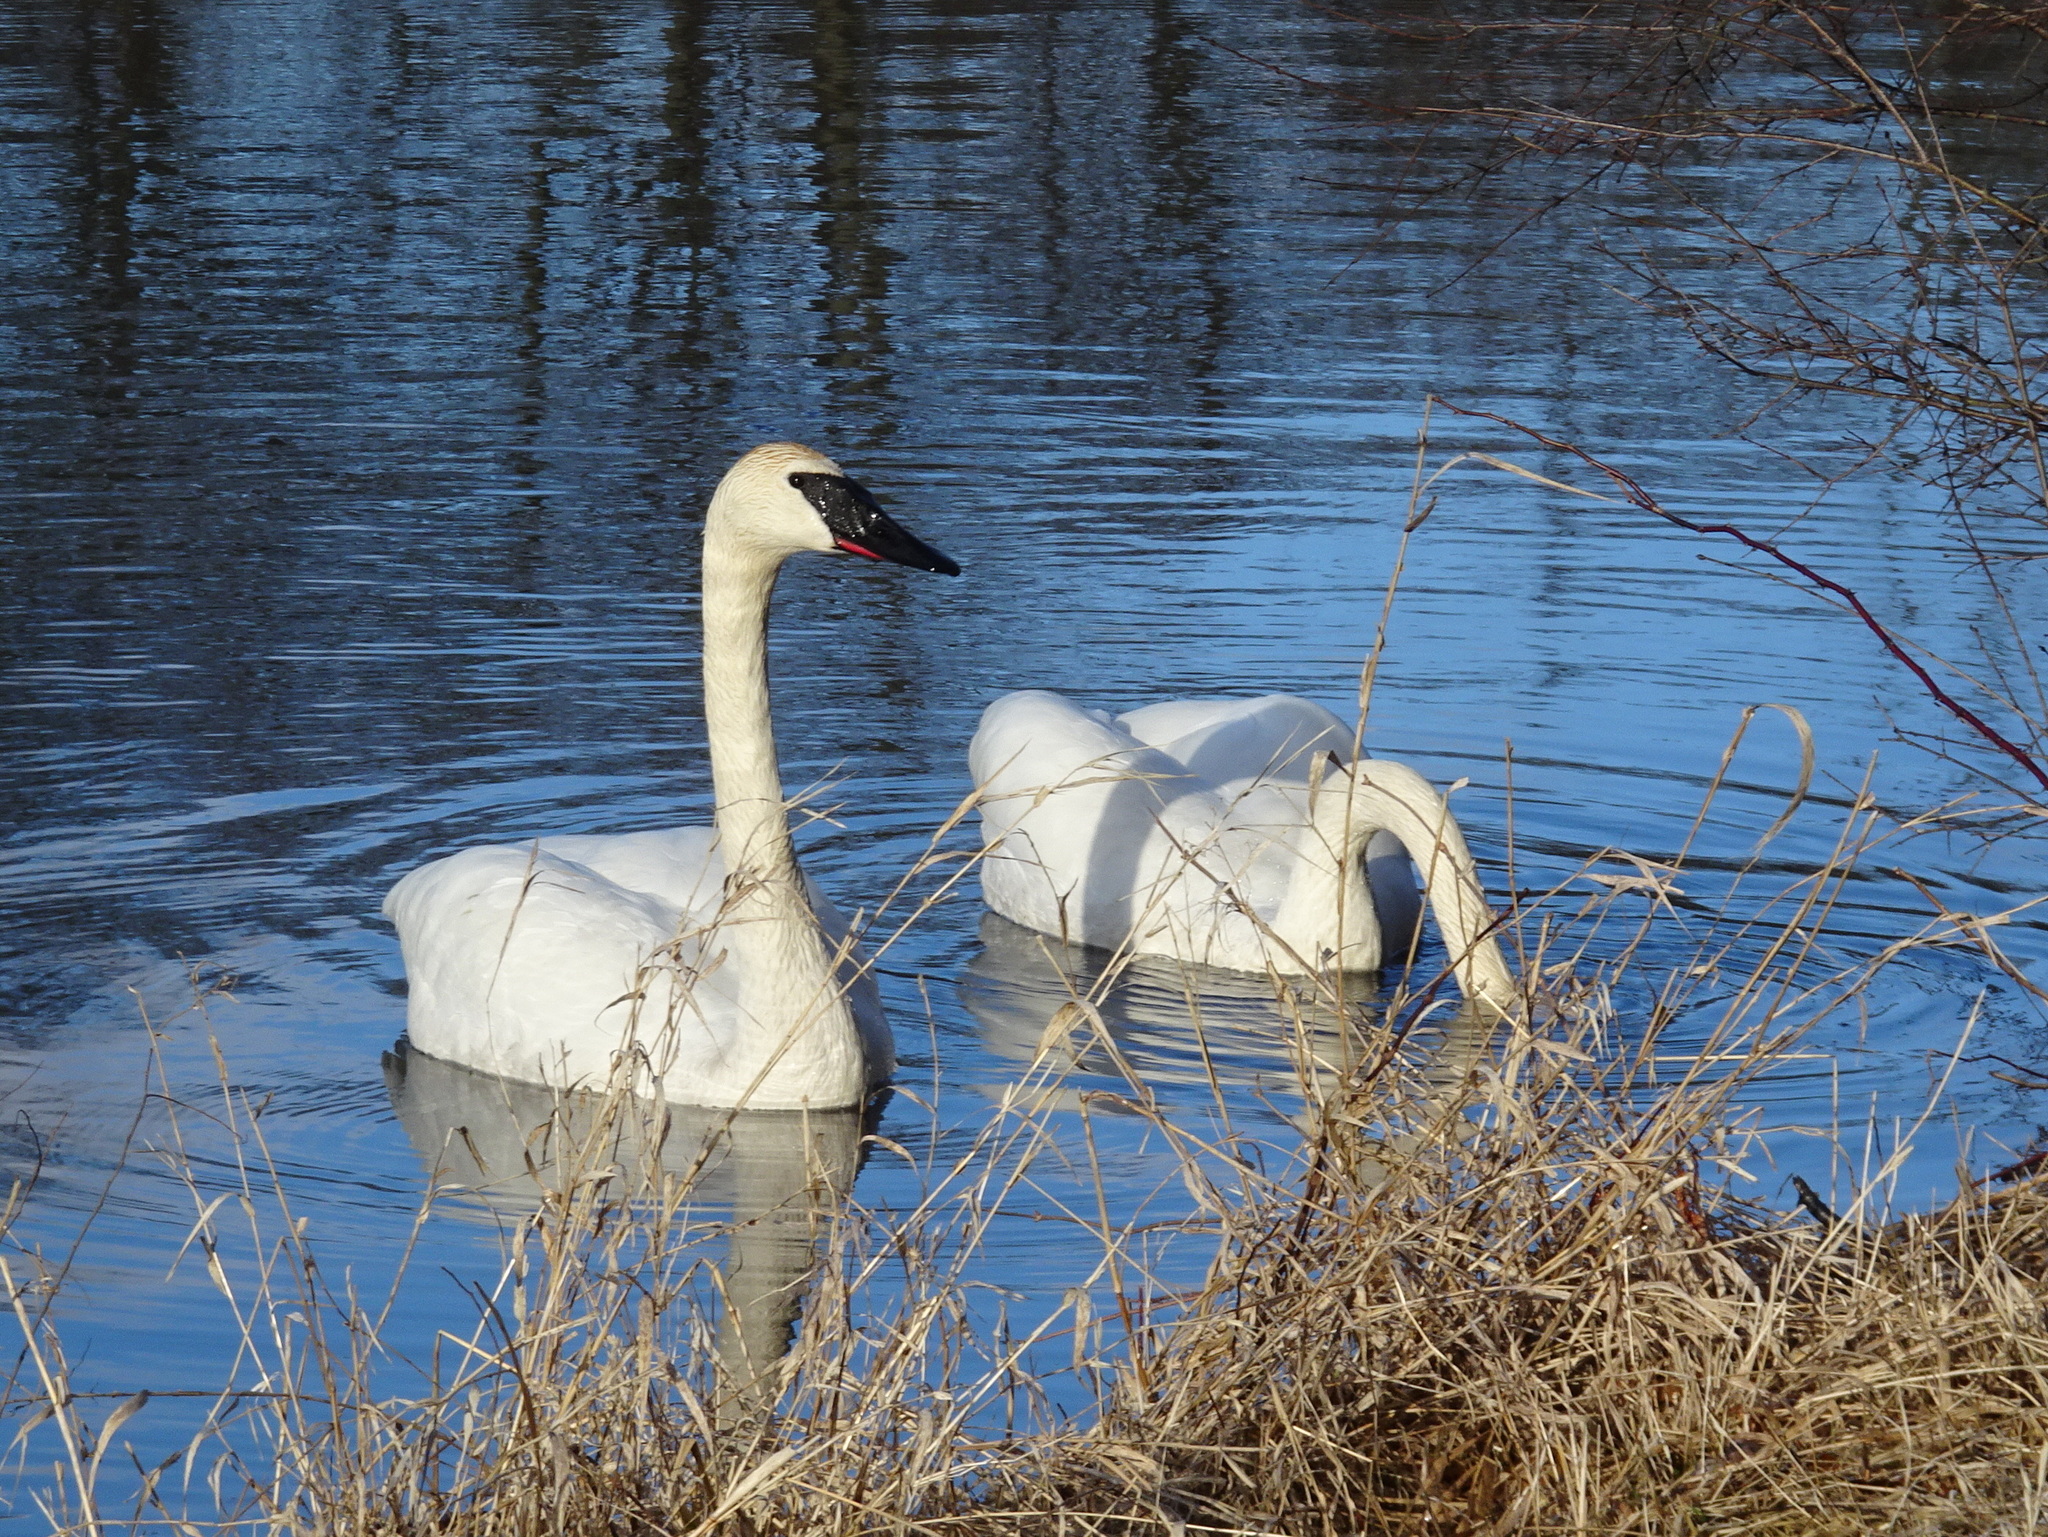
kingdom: Animalia
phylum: Chordata
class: Aves
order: Anseriformes
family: Anatidae
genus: Cygnus
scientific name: Cygnus buccinator
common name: Trumpeter swan
